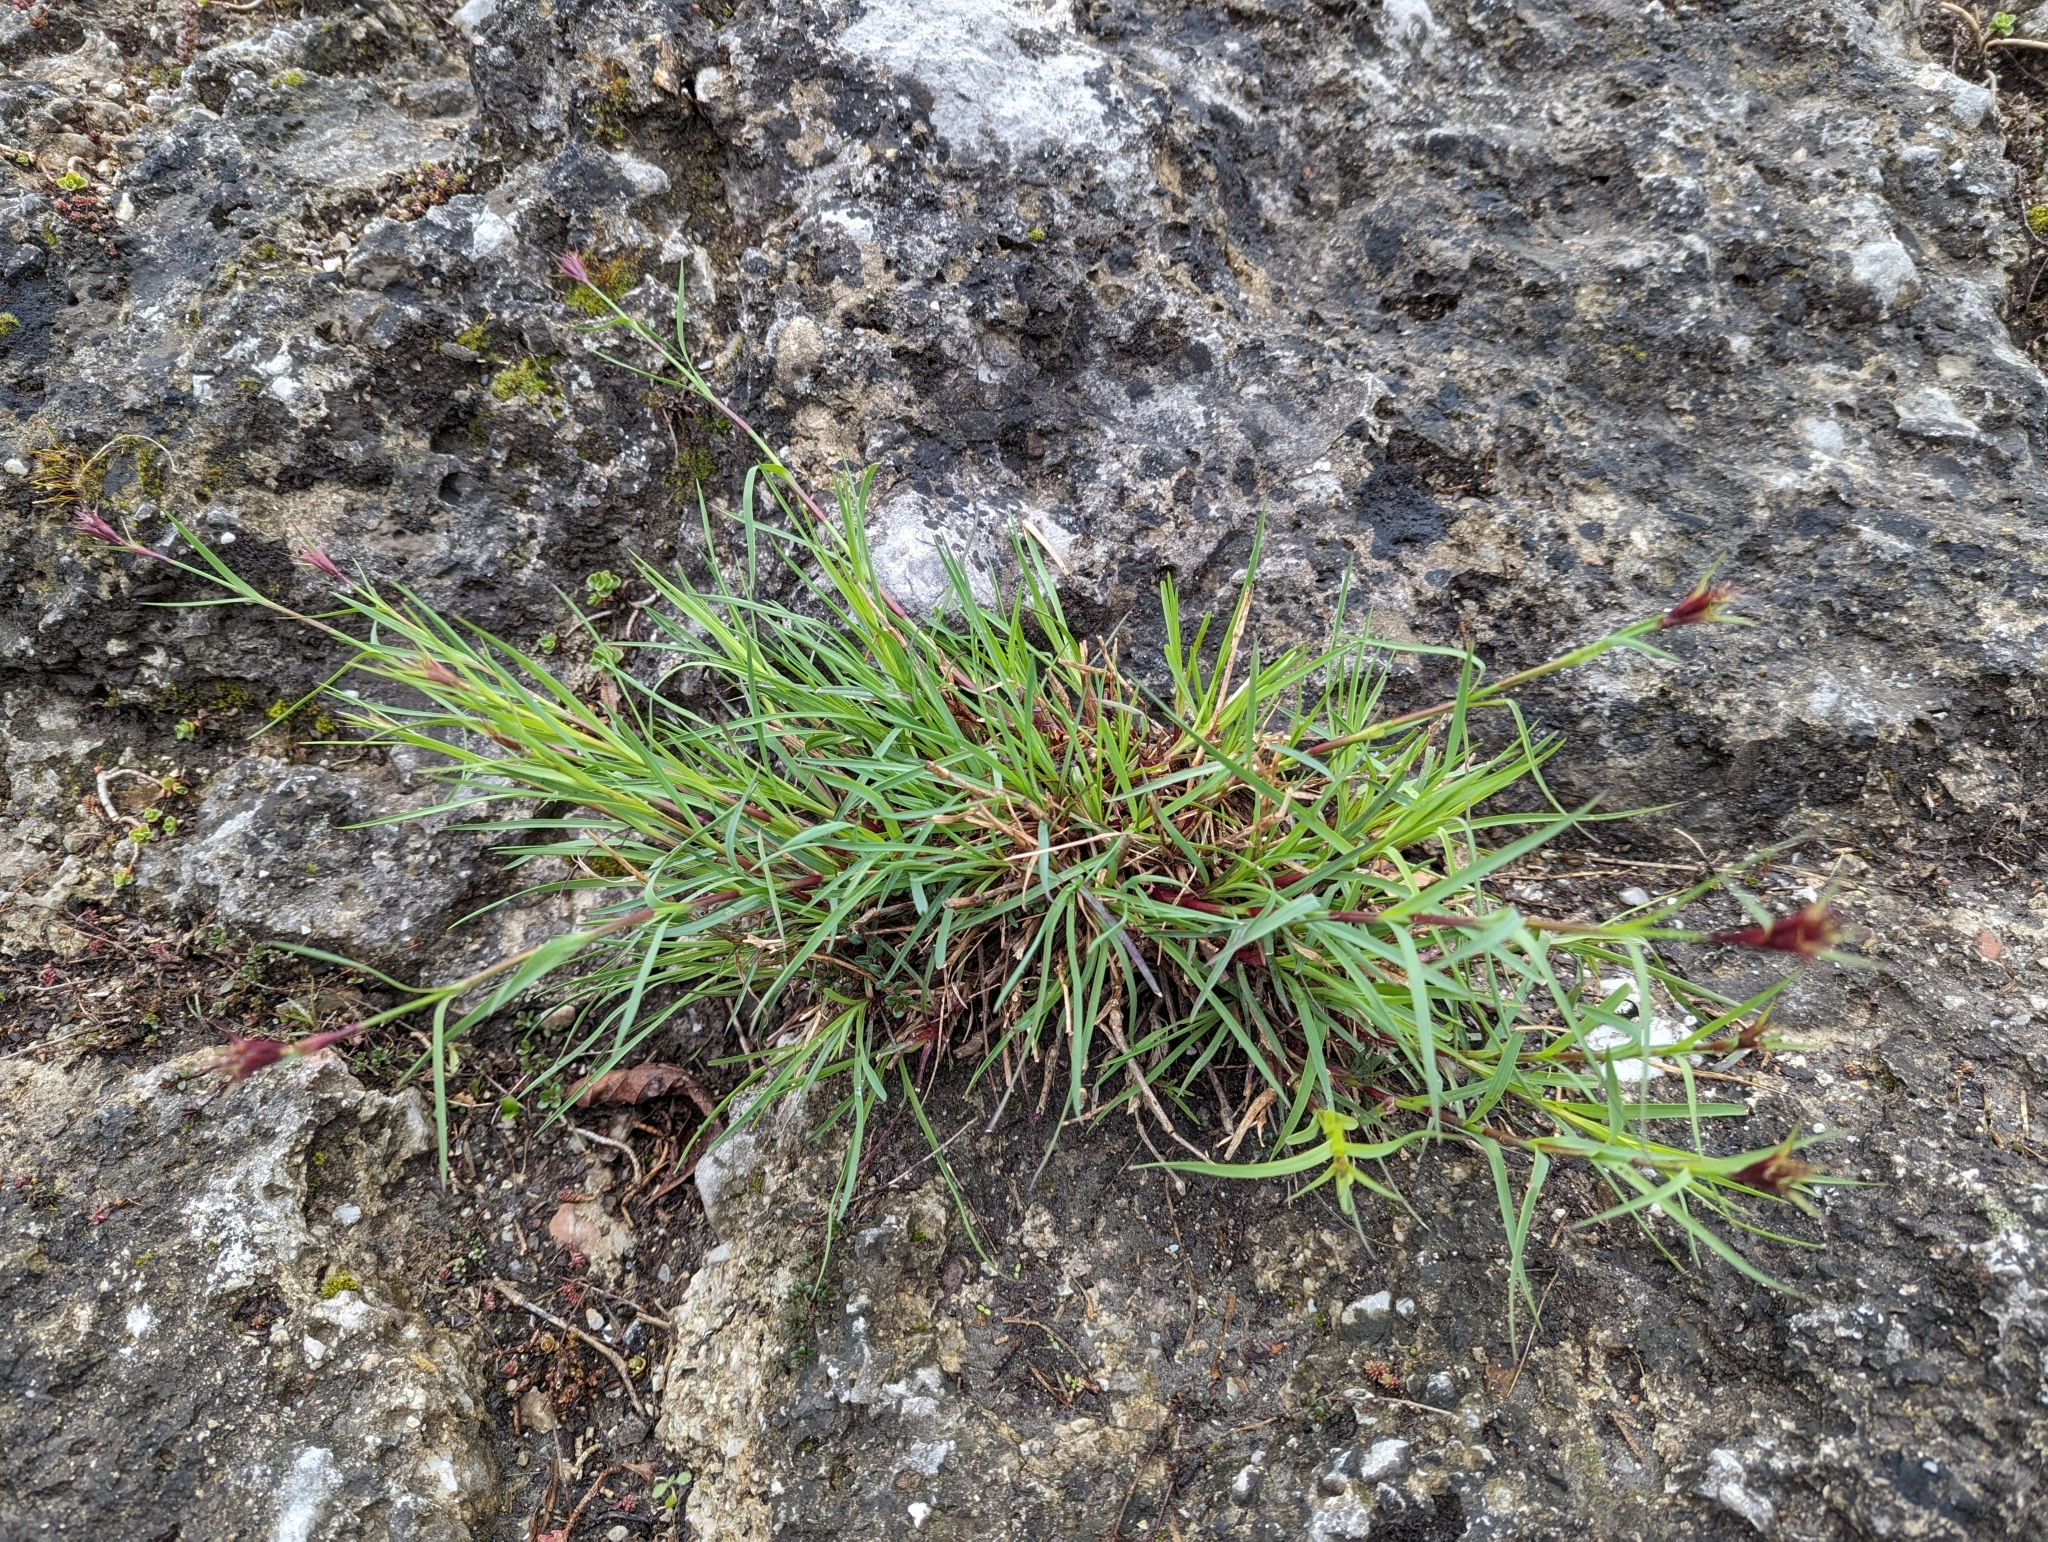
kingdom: Plantae
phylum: Tracheophyta
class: Magnoliopsida
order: Caryophyllales
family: Caryophyllaceae
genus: Dianthus
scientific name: Dianthus carthusianorum
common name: Carthusian pink
